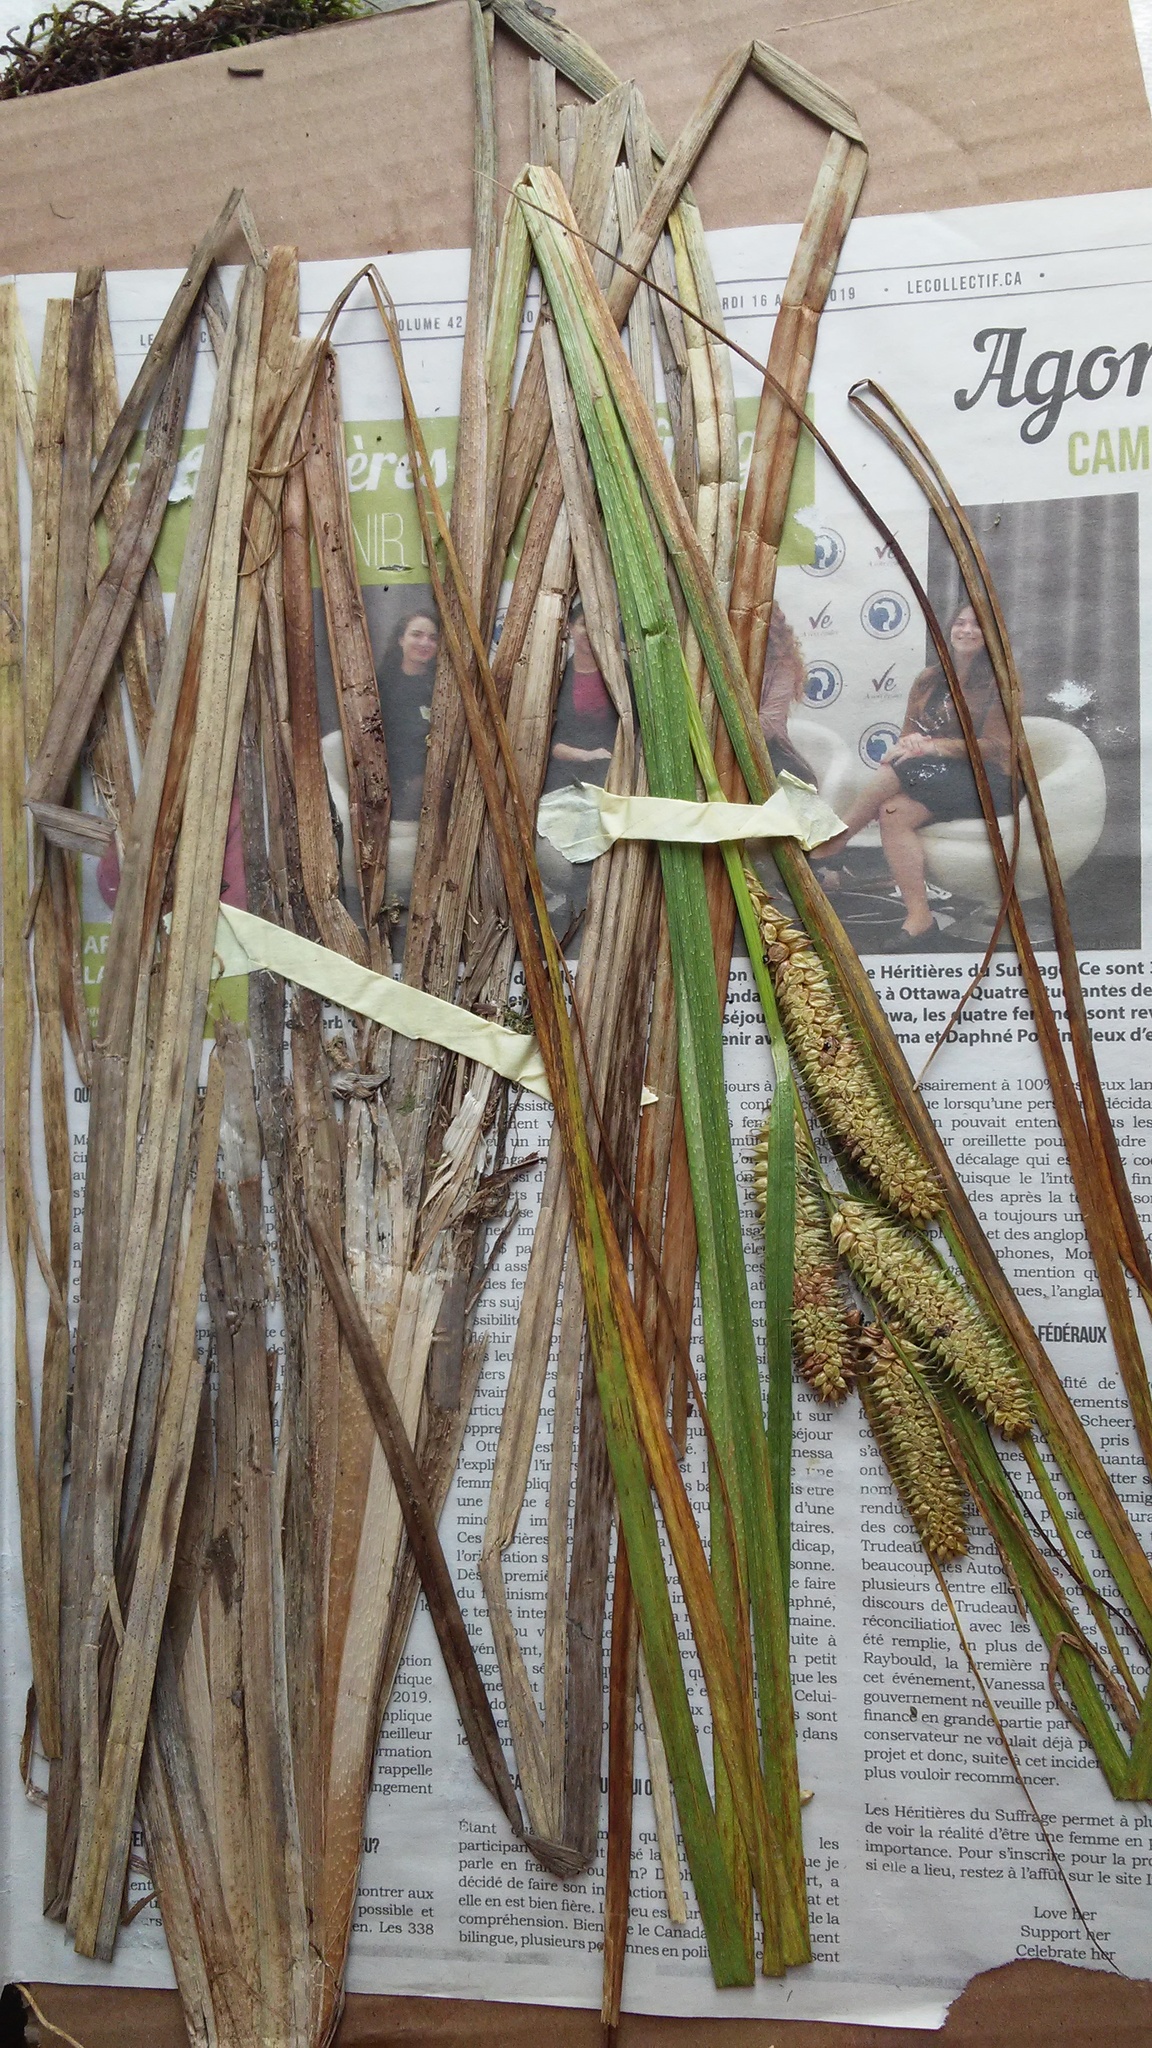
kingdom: Plantae
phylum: Tracheophyta
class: Liliopsida
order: Poales
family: Cyperaceae
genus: Carex
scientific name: Carex utriculata
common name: Beaked sedge
